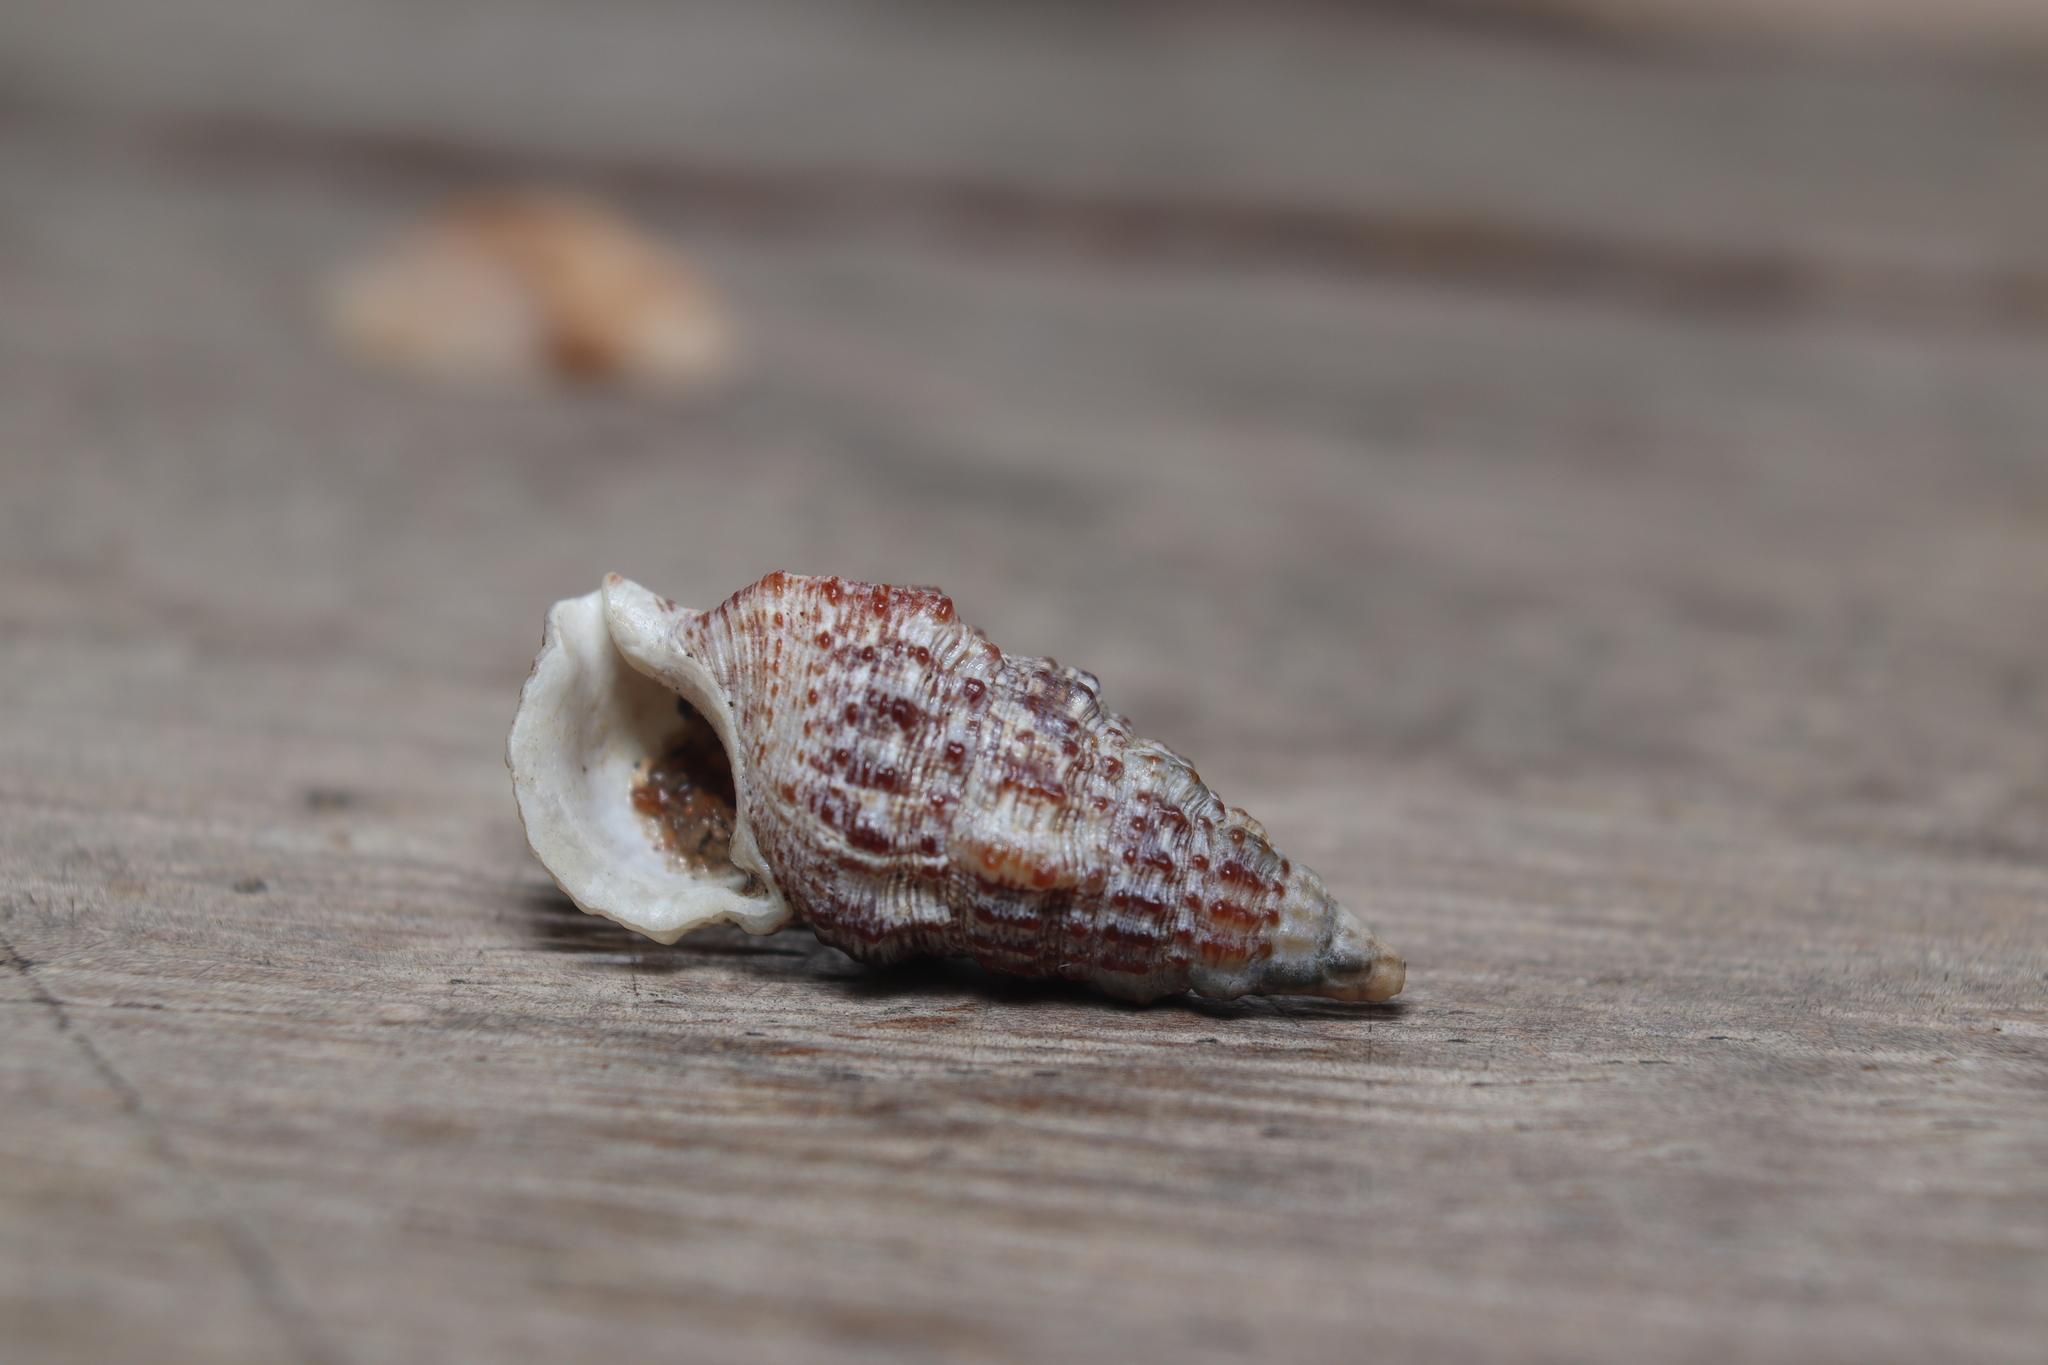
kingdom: Animalia
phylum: Mollusca
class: Gastropoda
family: Cerithiidae
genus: Cerithium
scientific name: Cerithium atratum
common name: Dark cerith
